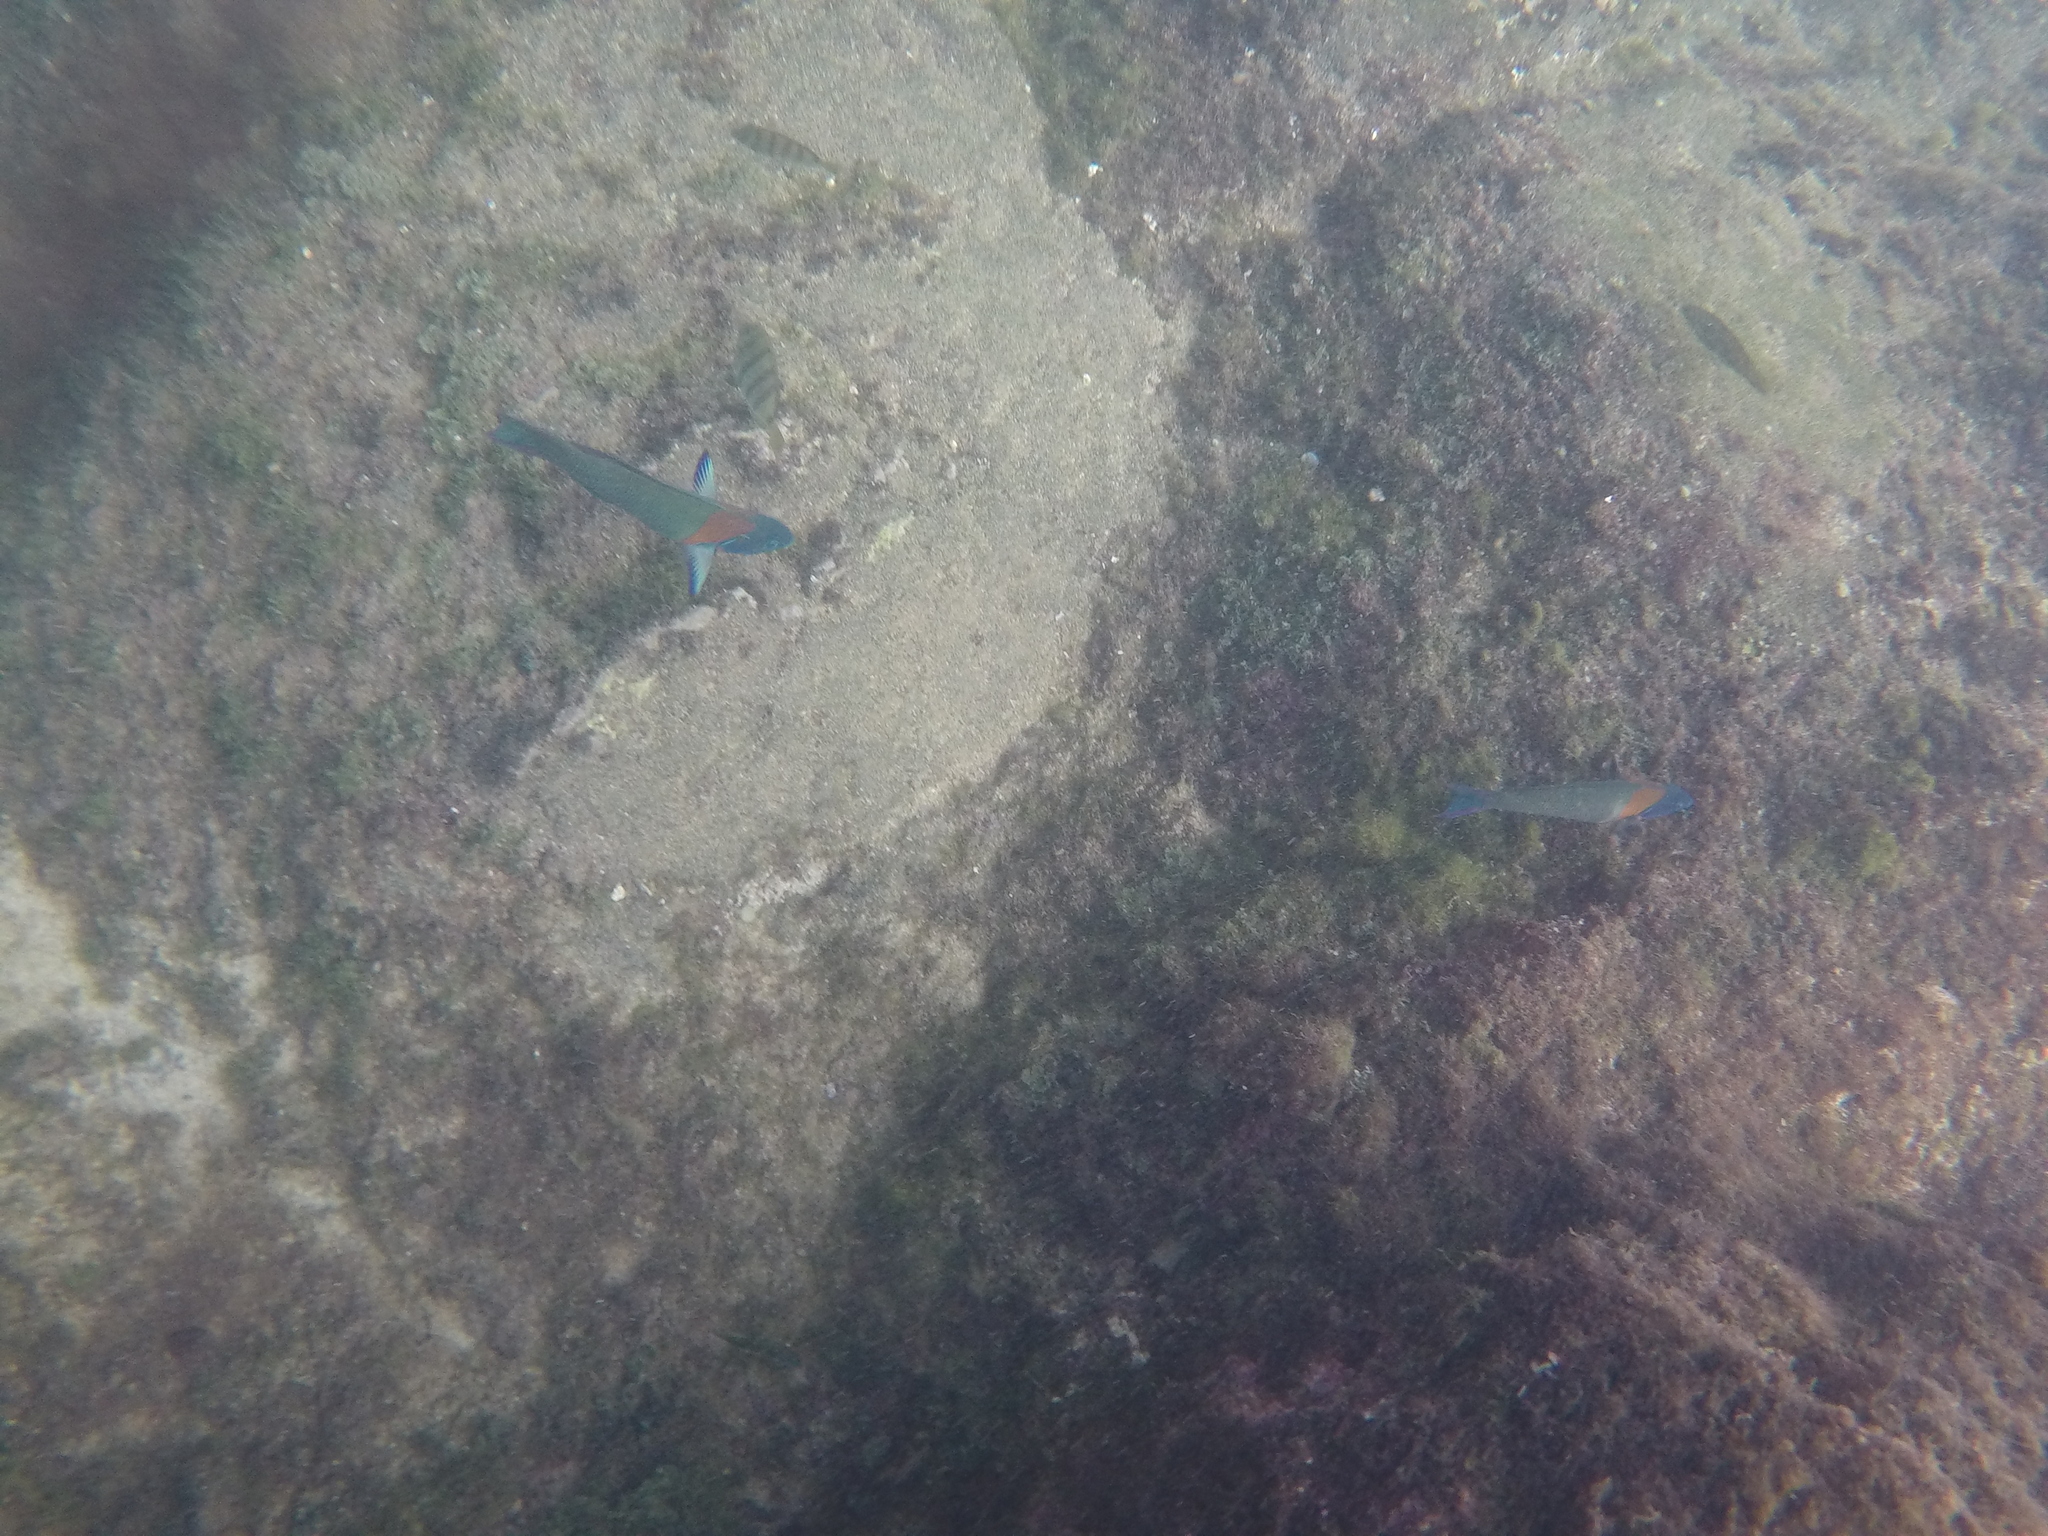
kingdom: Animalia
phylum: Chordata
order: Perciformes
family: Labridae
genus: Thalassoma
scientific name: Thalassoma duperrey
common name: Saddle wrasse
